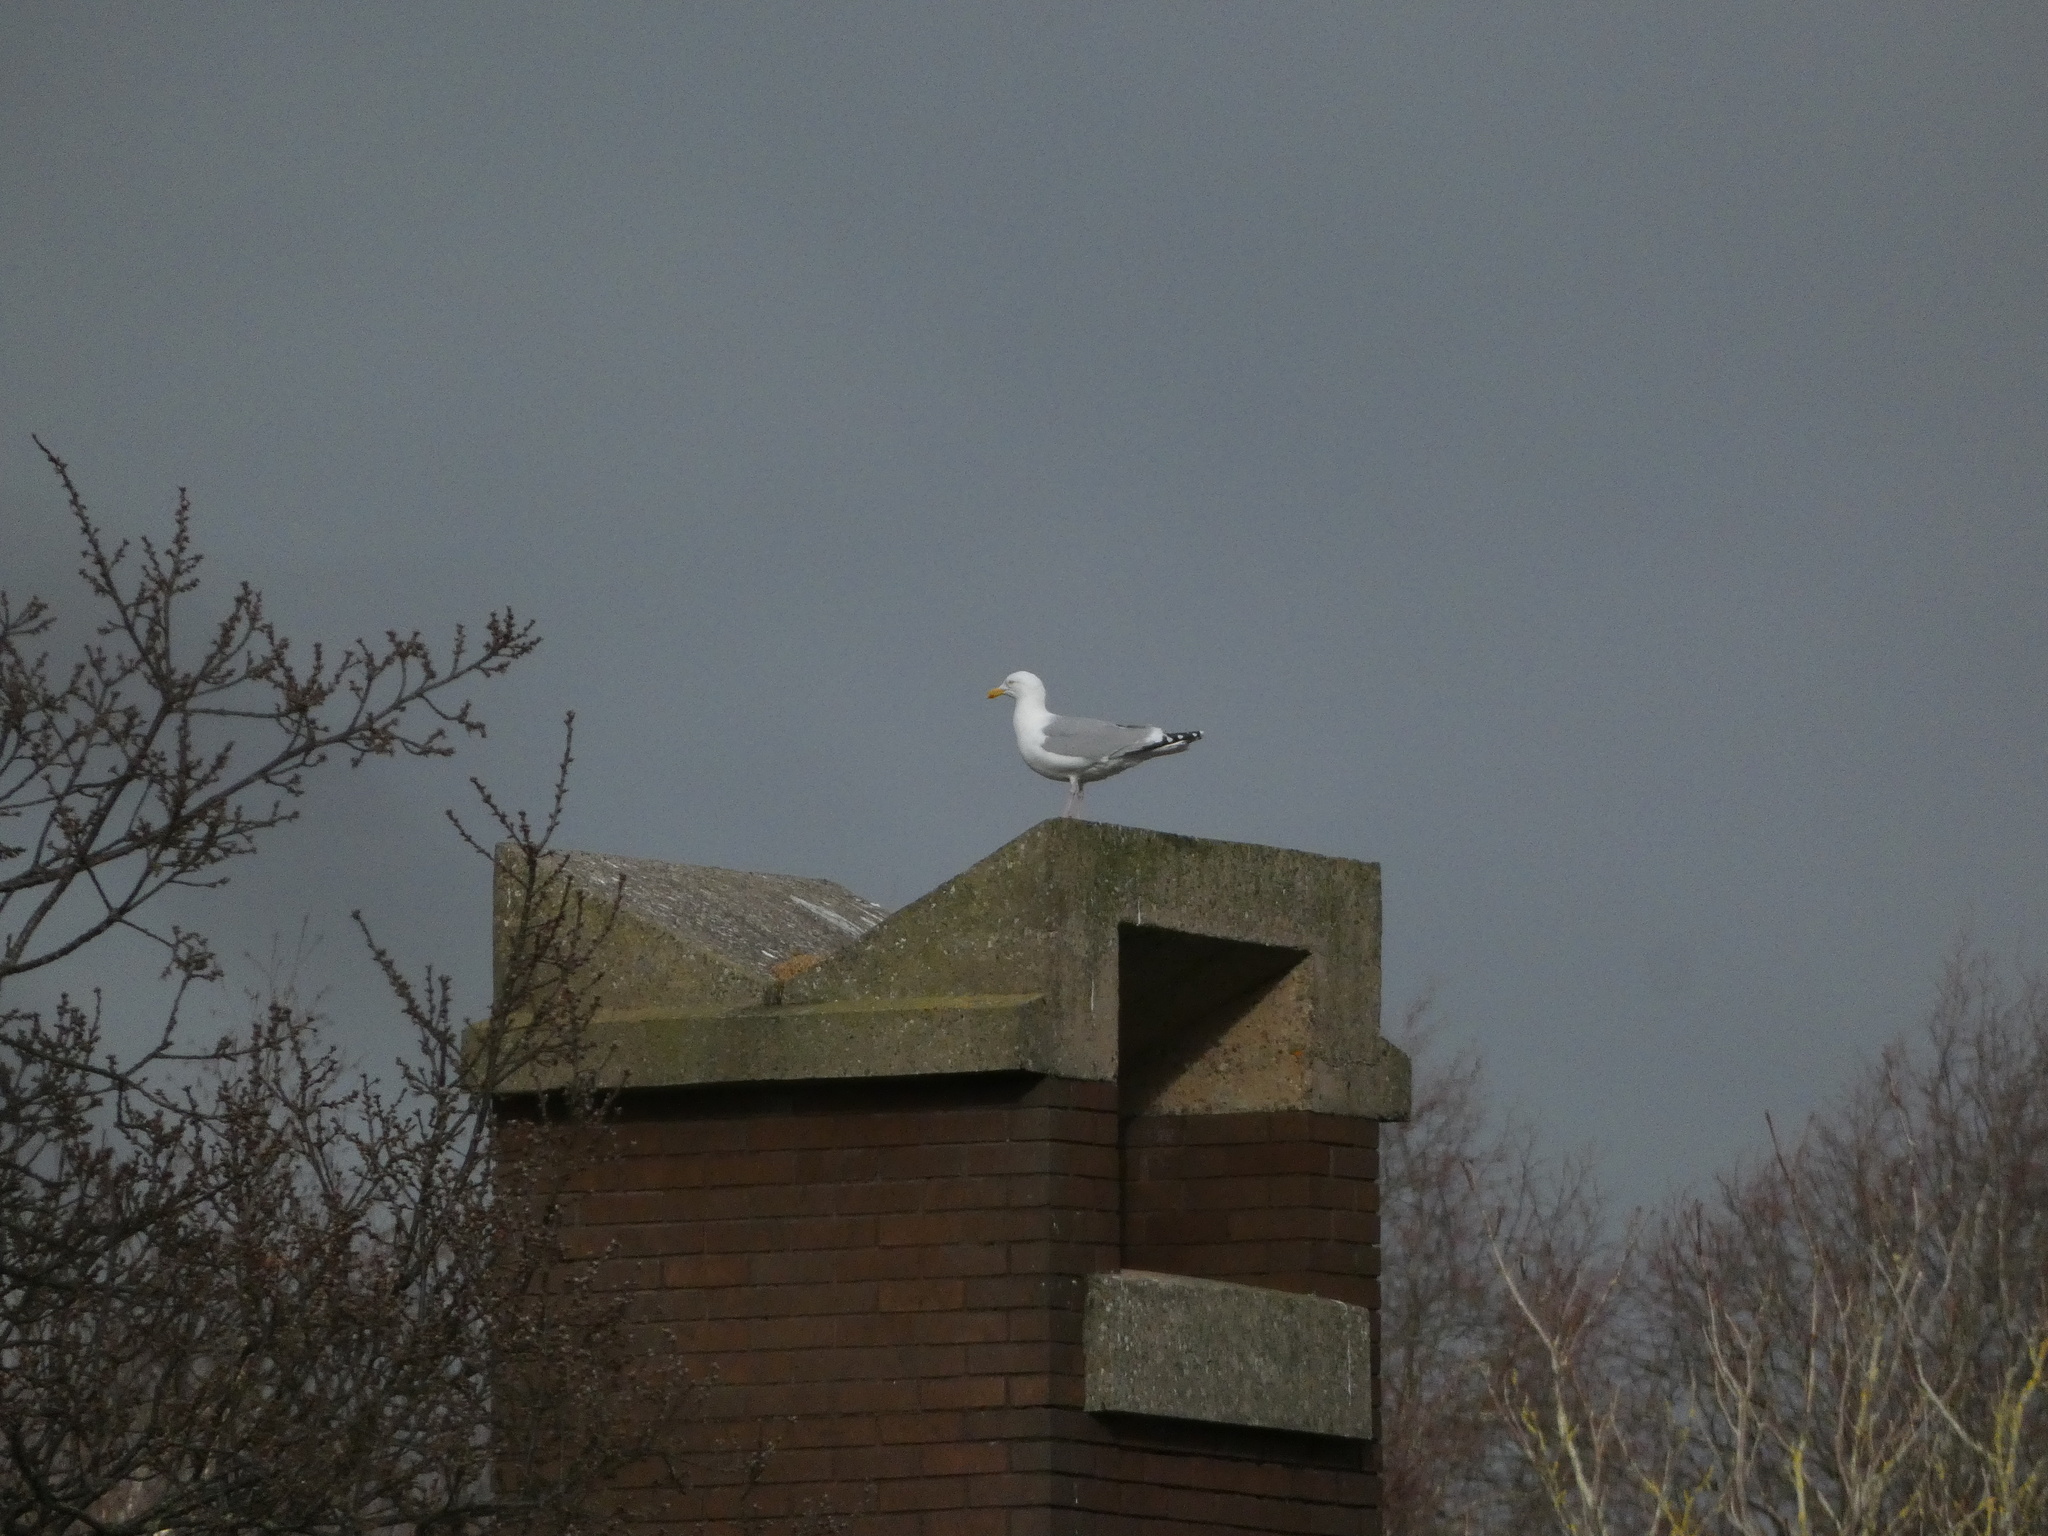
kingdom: Animalia
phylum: Chordata
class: Aves
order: Charadriiformes
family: Laridae
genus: Larus
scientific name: Larus argentatus
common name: Herring gull
